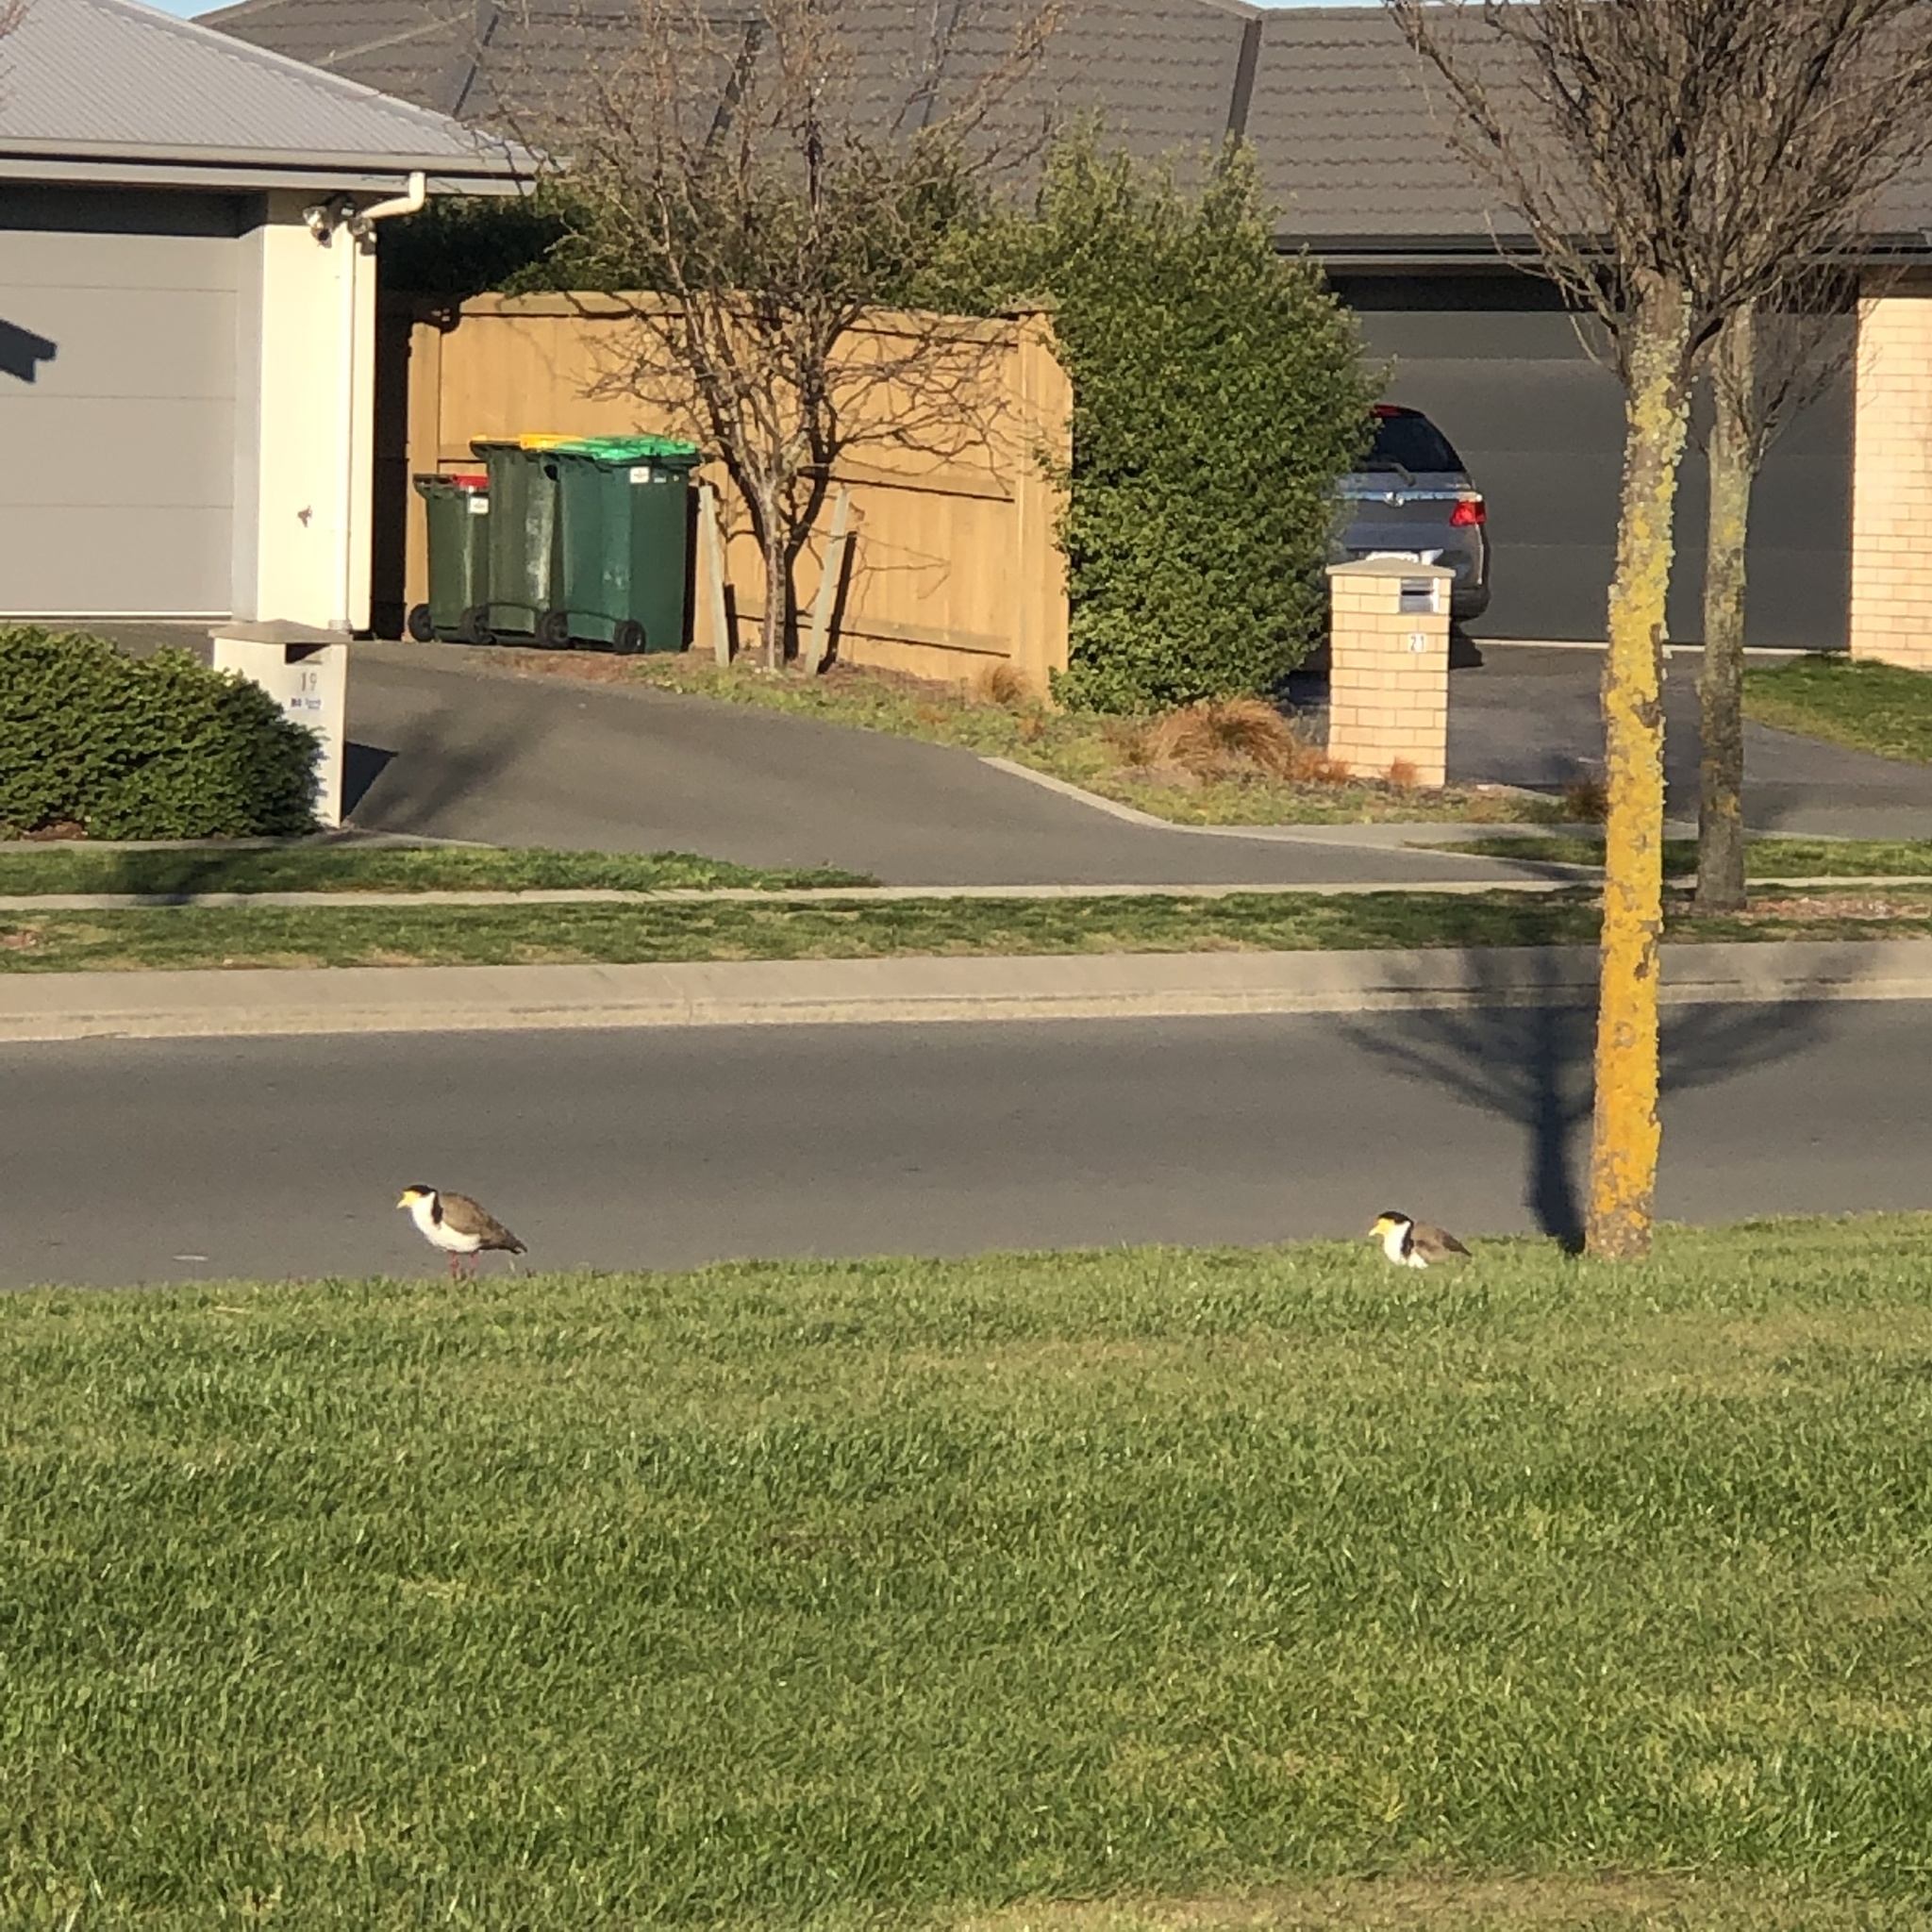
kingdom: Animalia
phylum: Chordata
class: Aves
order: Charadriiformes
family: Charadriidae
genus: Vanellus
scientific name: Vanellus miles
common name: Masked lapwing
